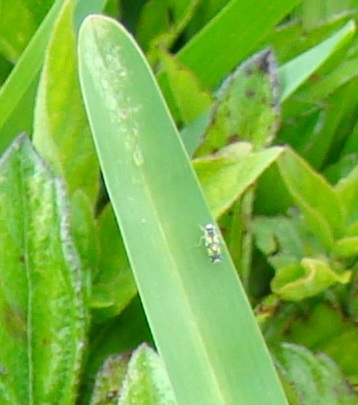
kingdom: Animalia
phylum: Arthropoda
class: Insecta
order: Hemiptera
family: Cicadellidae
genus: Protalebrella
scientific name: Protalebrella brasiliensis
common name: Brasilian leafhopper
